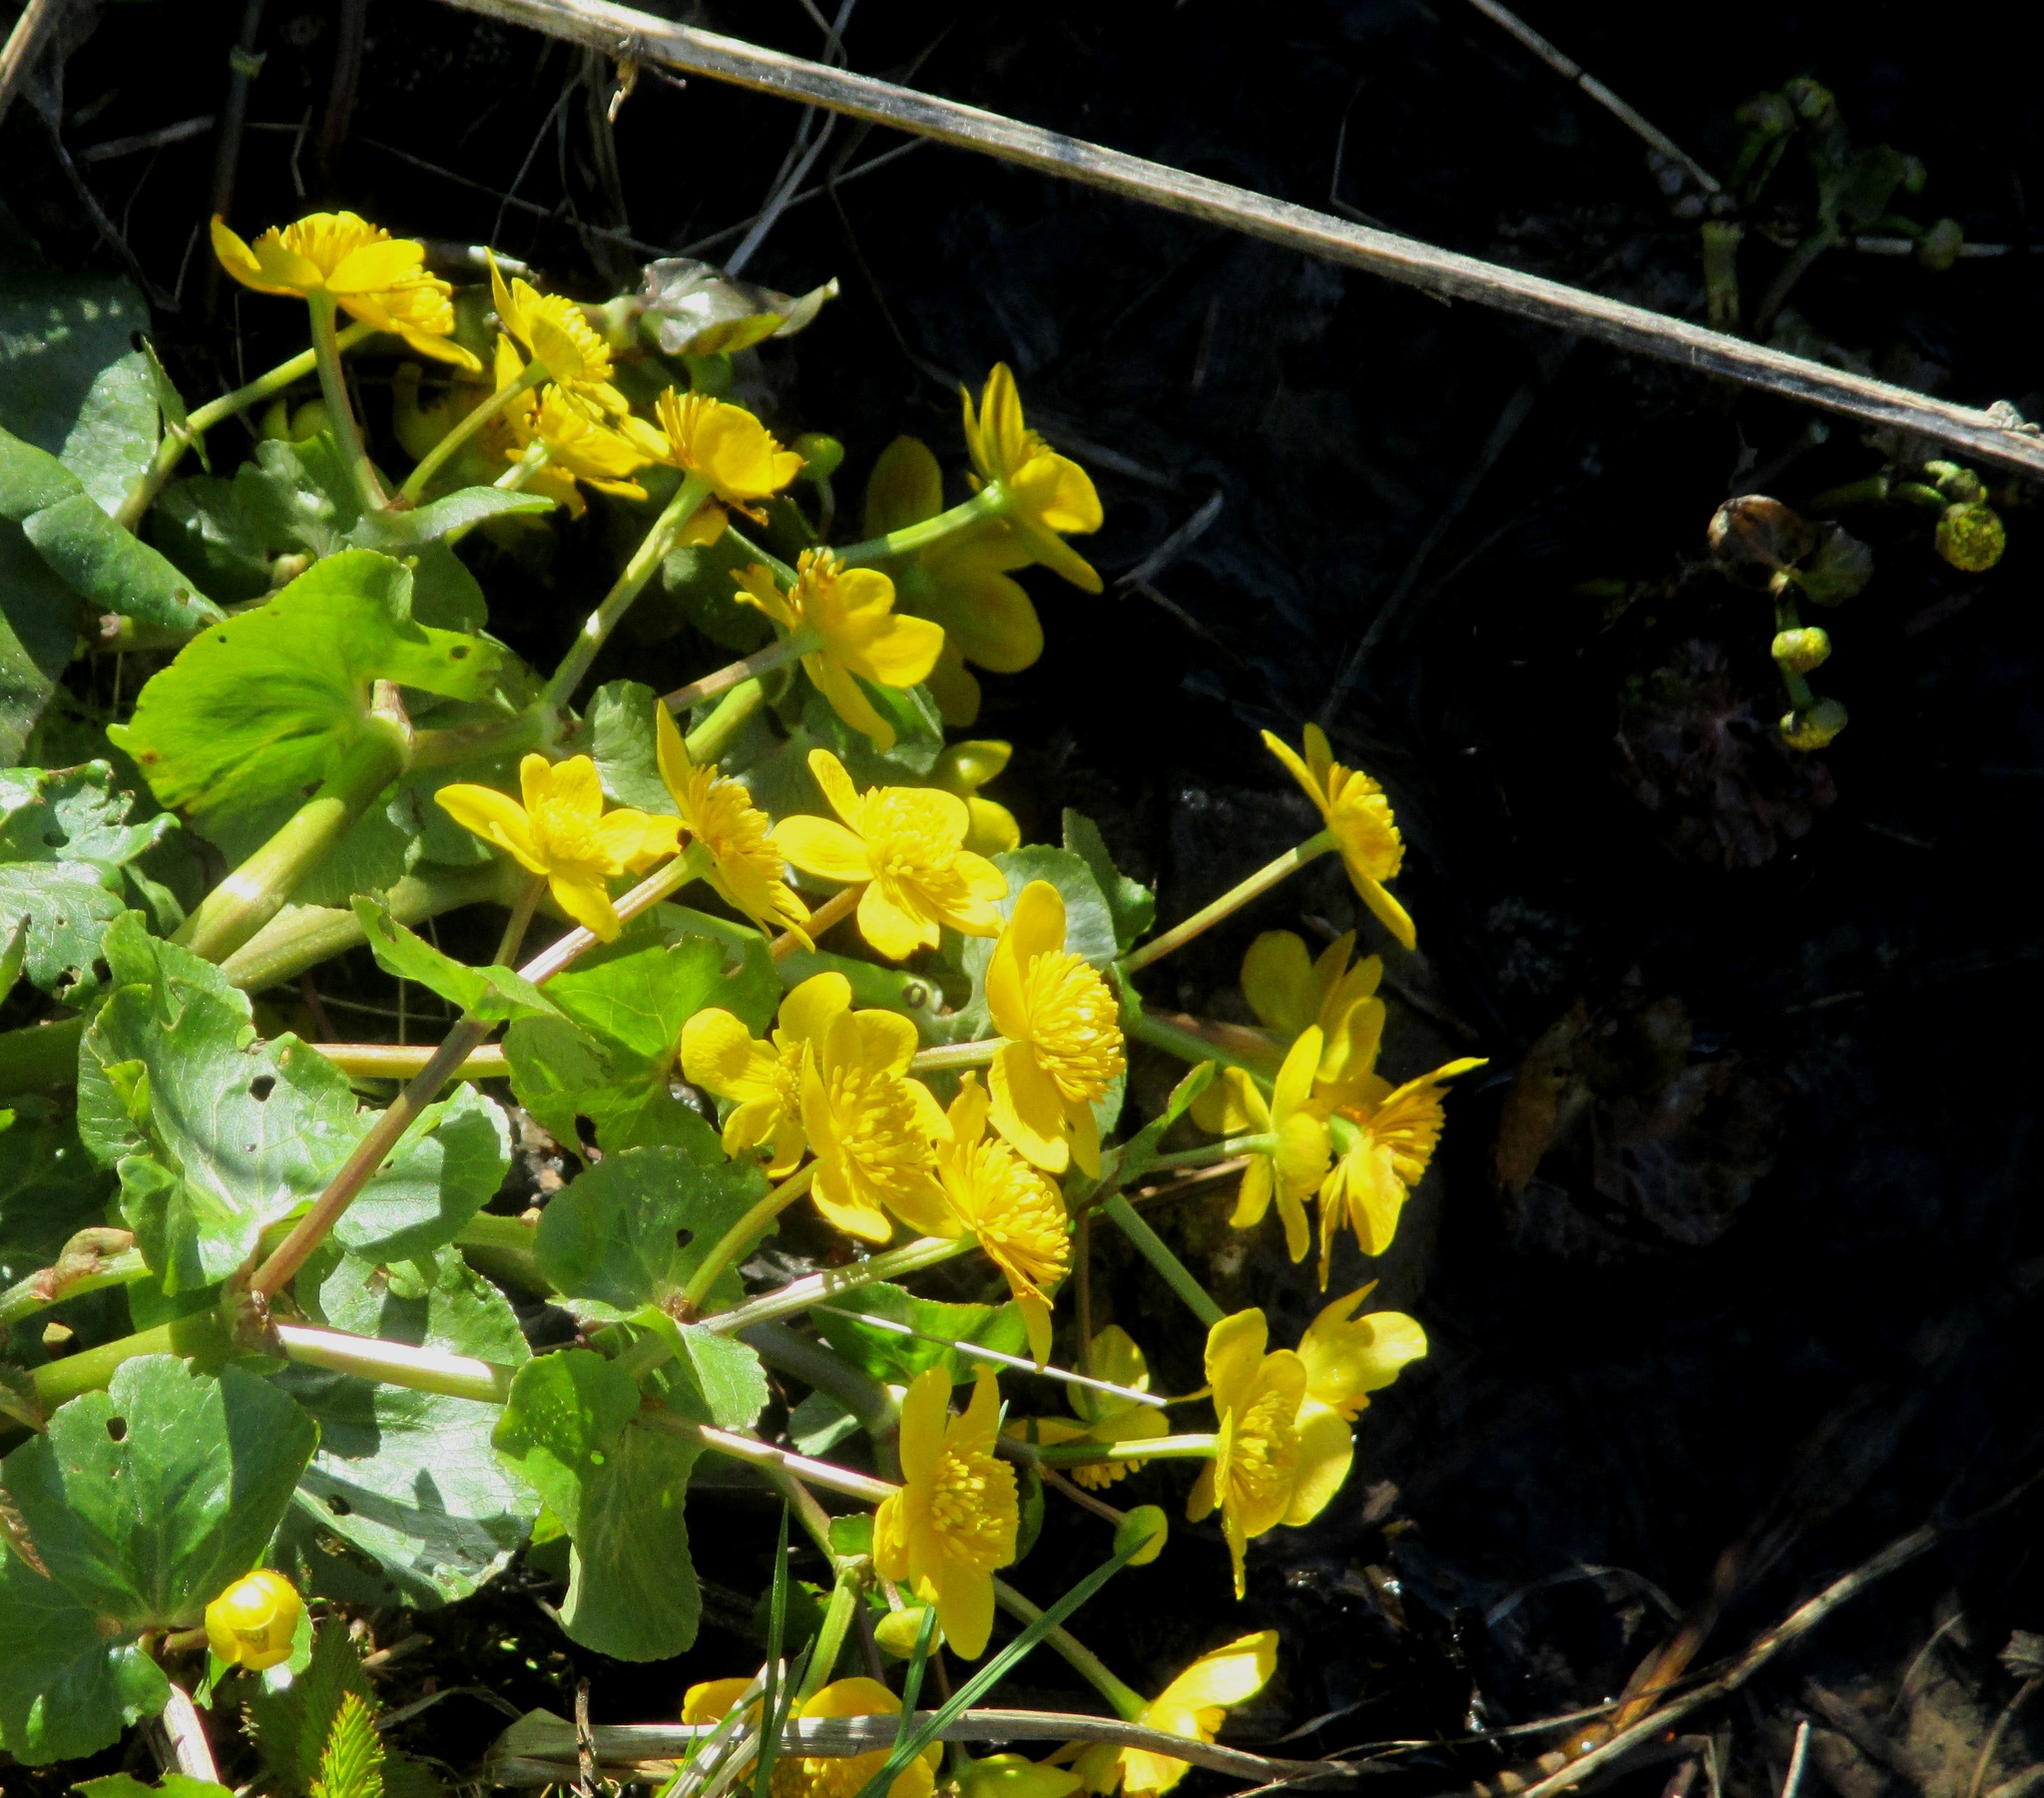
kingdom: Plantae
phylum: Tracheophyta
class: Magnoliopsida
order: Ranunculales
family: Ranunculaceae
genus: Caltha
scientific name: Caltha palustris
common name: Marsh marigold
